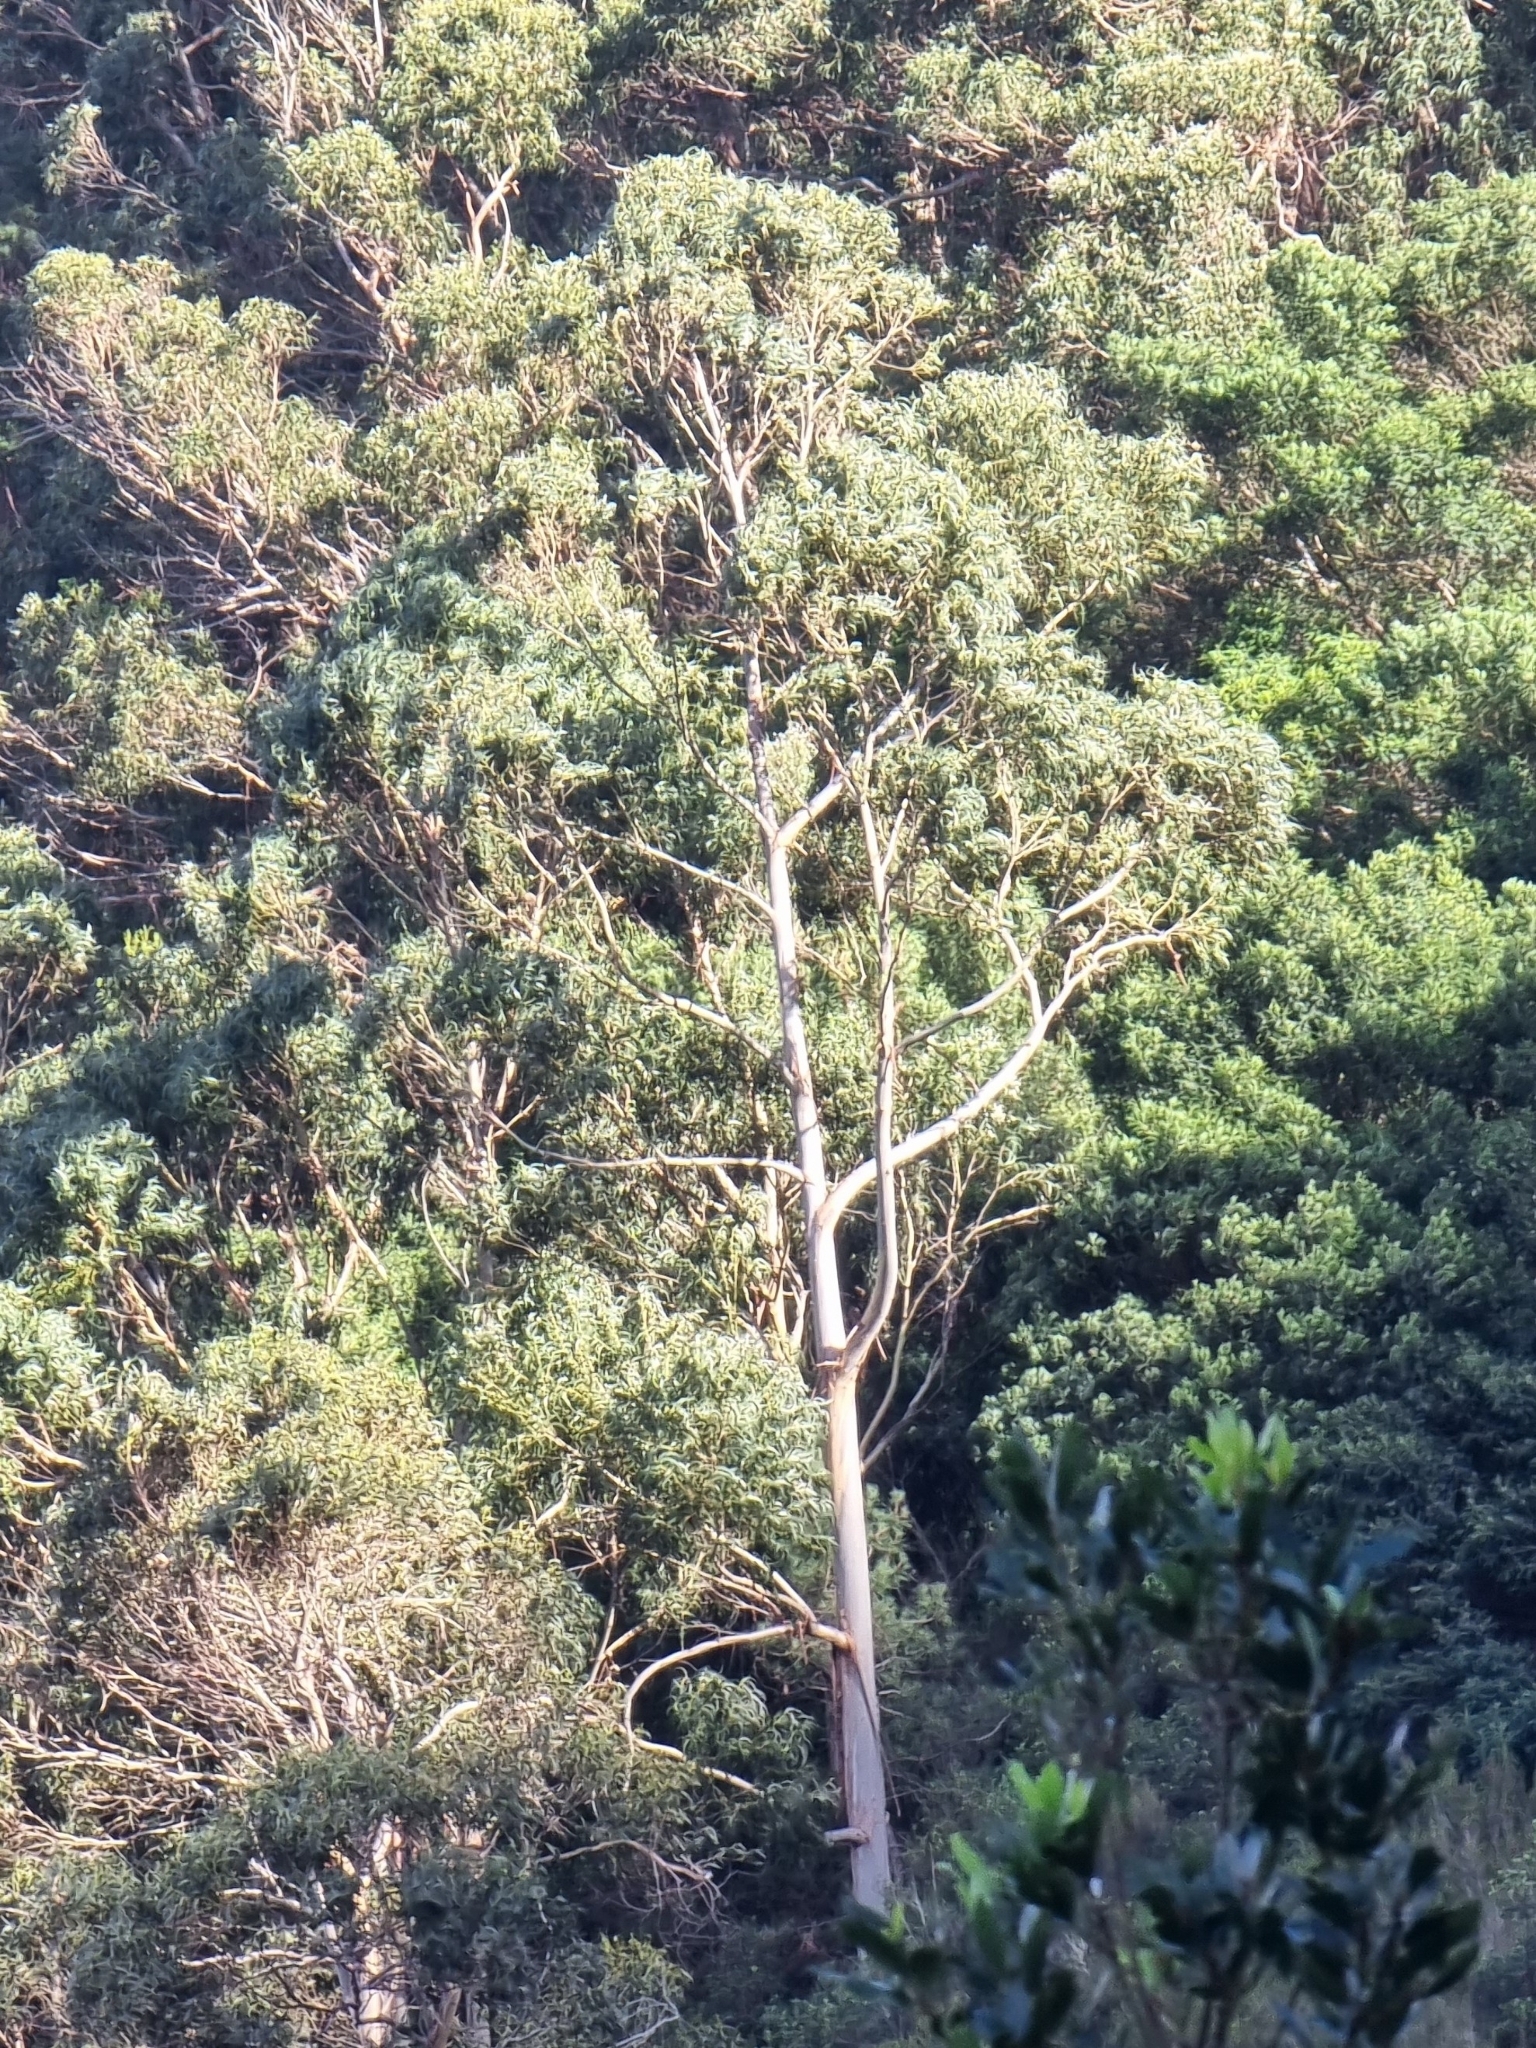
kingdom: Plantae
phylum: Tracheophyta
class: Magnoliopsida
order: Myrtales
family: Myrtaceae
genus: Eucalyptus
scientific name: Eucalyptus globulus
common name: Southern blue-gum
